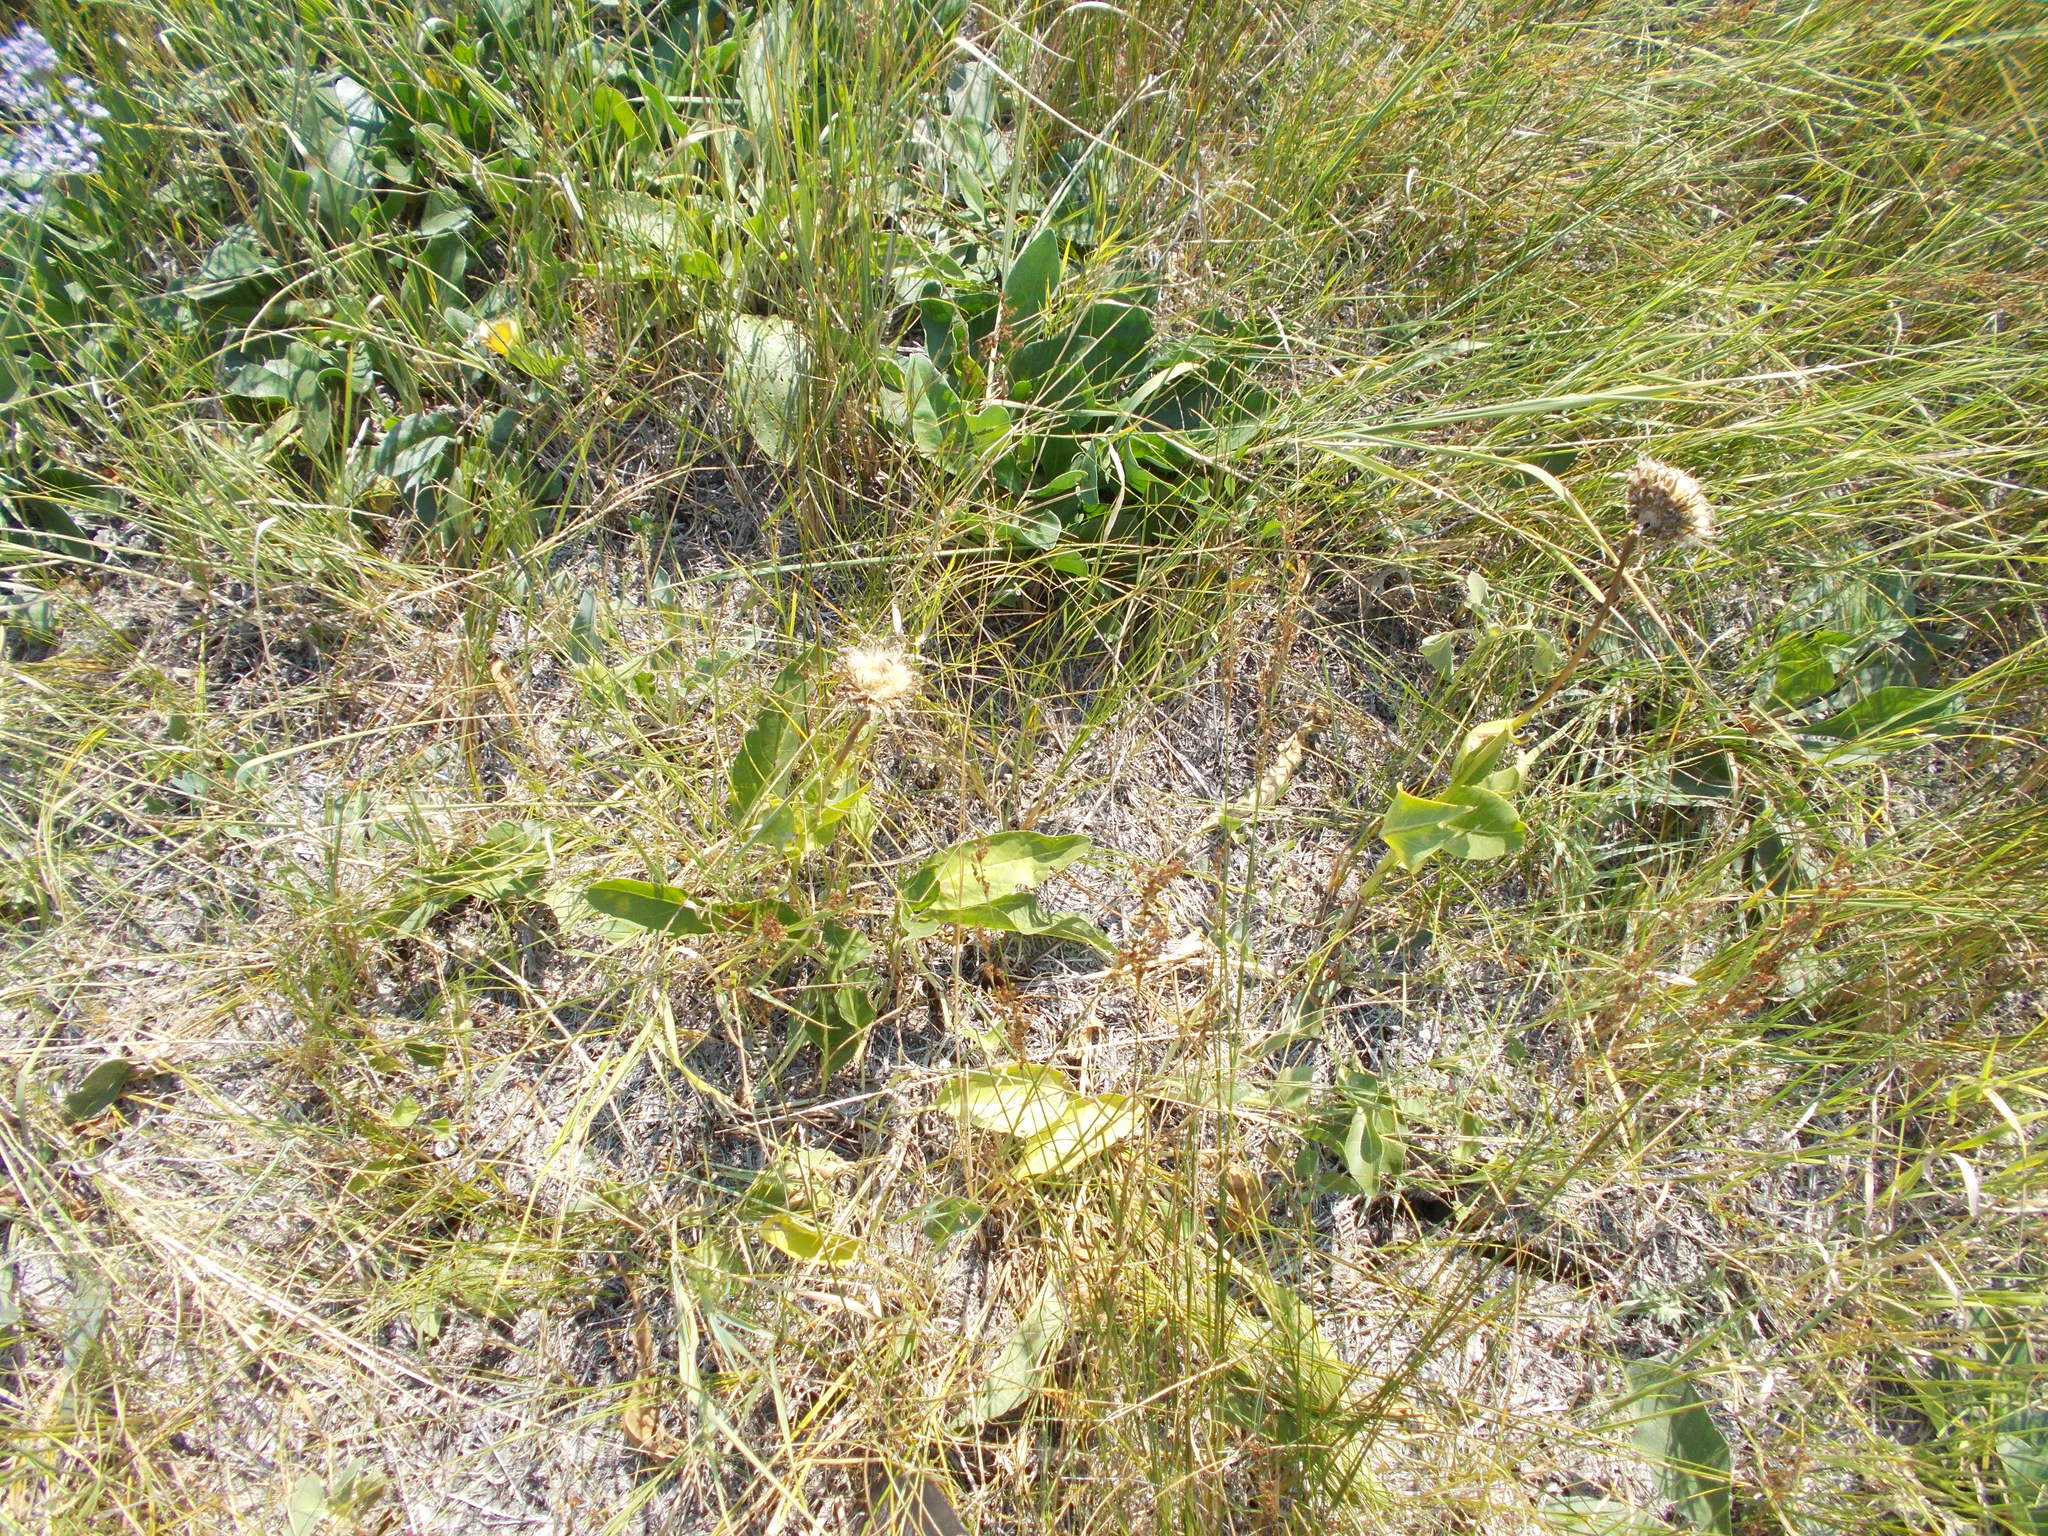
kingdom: Plantae
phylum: Tracheophyta
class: Magnoliopsida
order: Asterales
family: Asteraceae
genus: Leuzea
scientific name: Leuzea carthamoides
